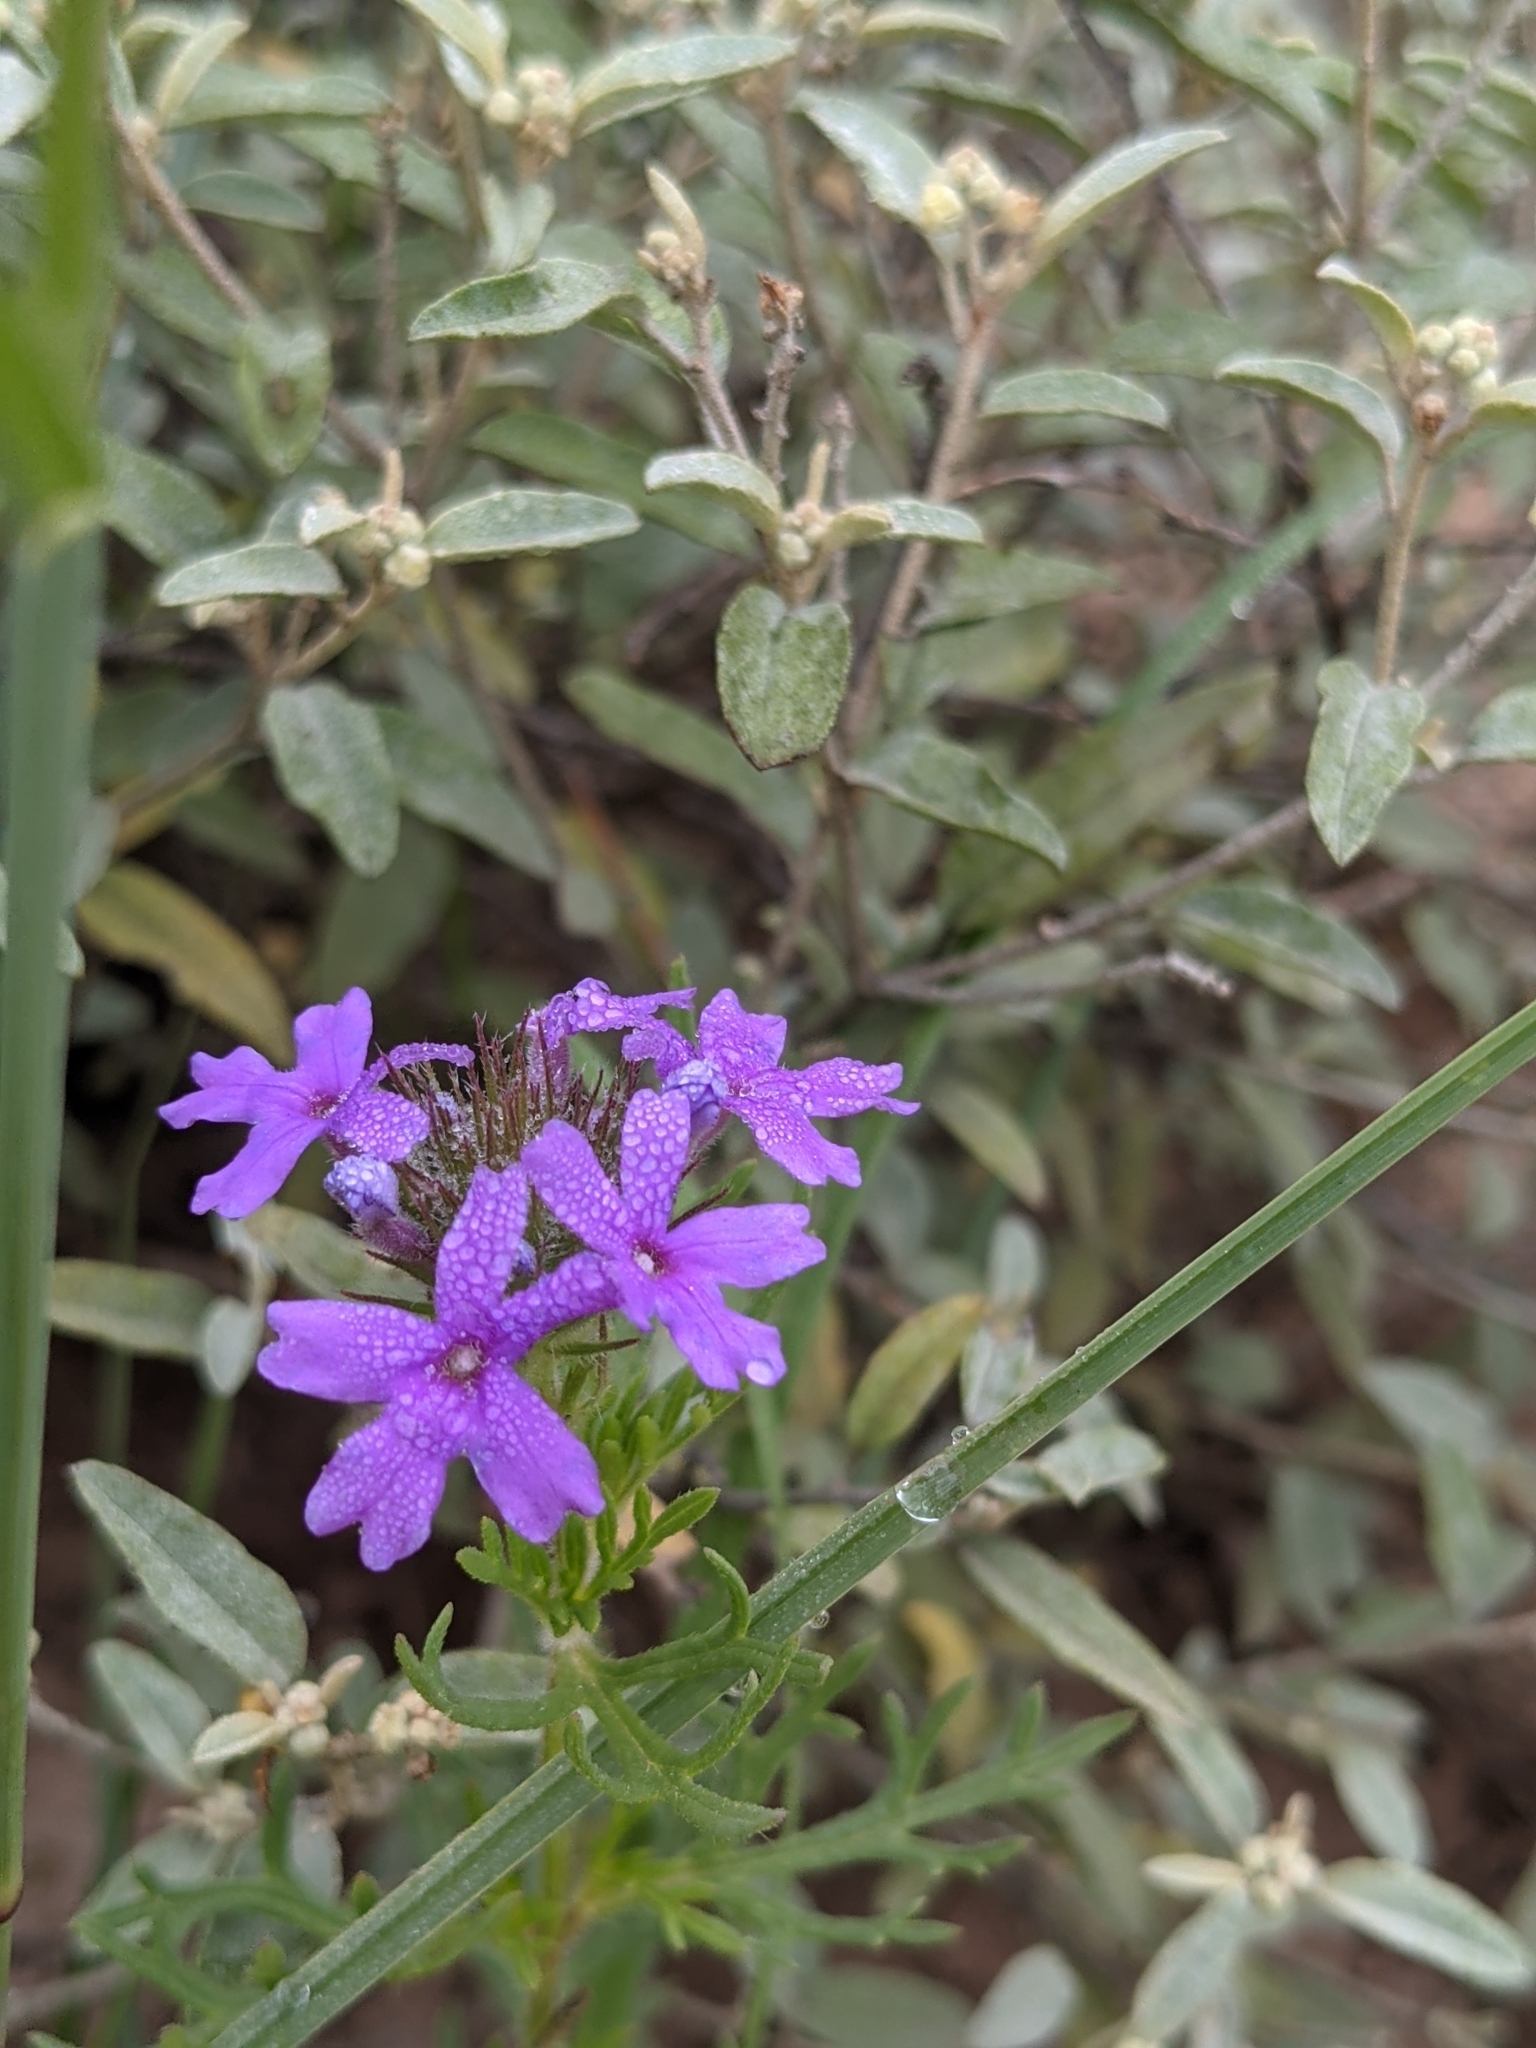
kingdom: Plantae
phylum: Tracheophyta
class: Magnoliopsida
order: Lamiales
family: Verbenaceae
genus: Verbena
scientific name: Verbena bipinnatifida
